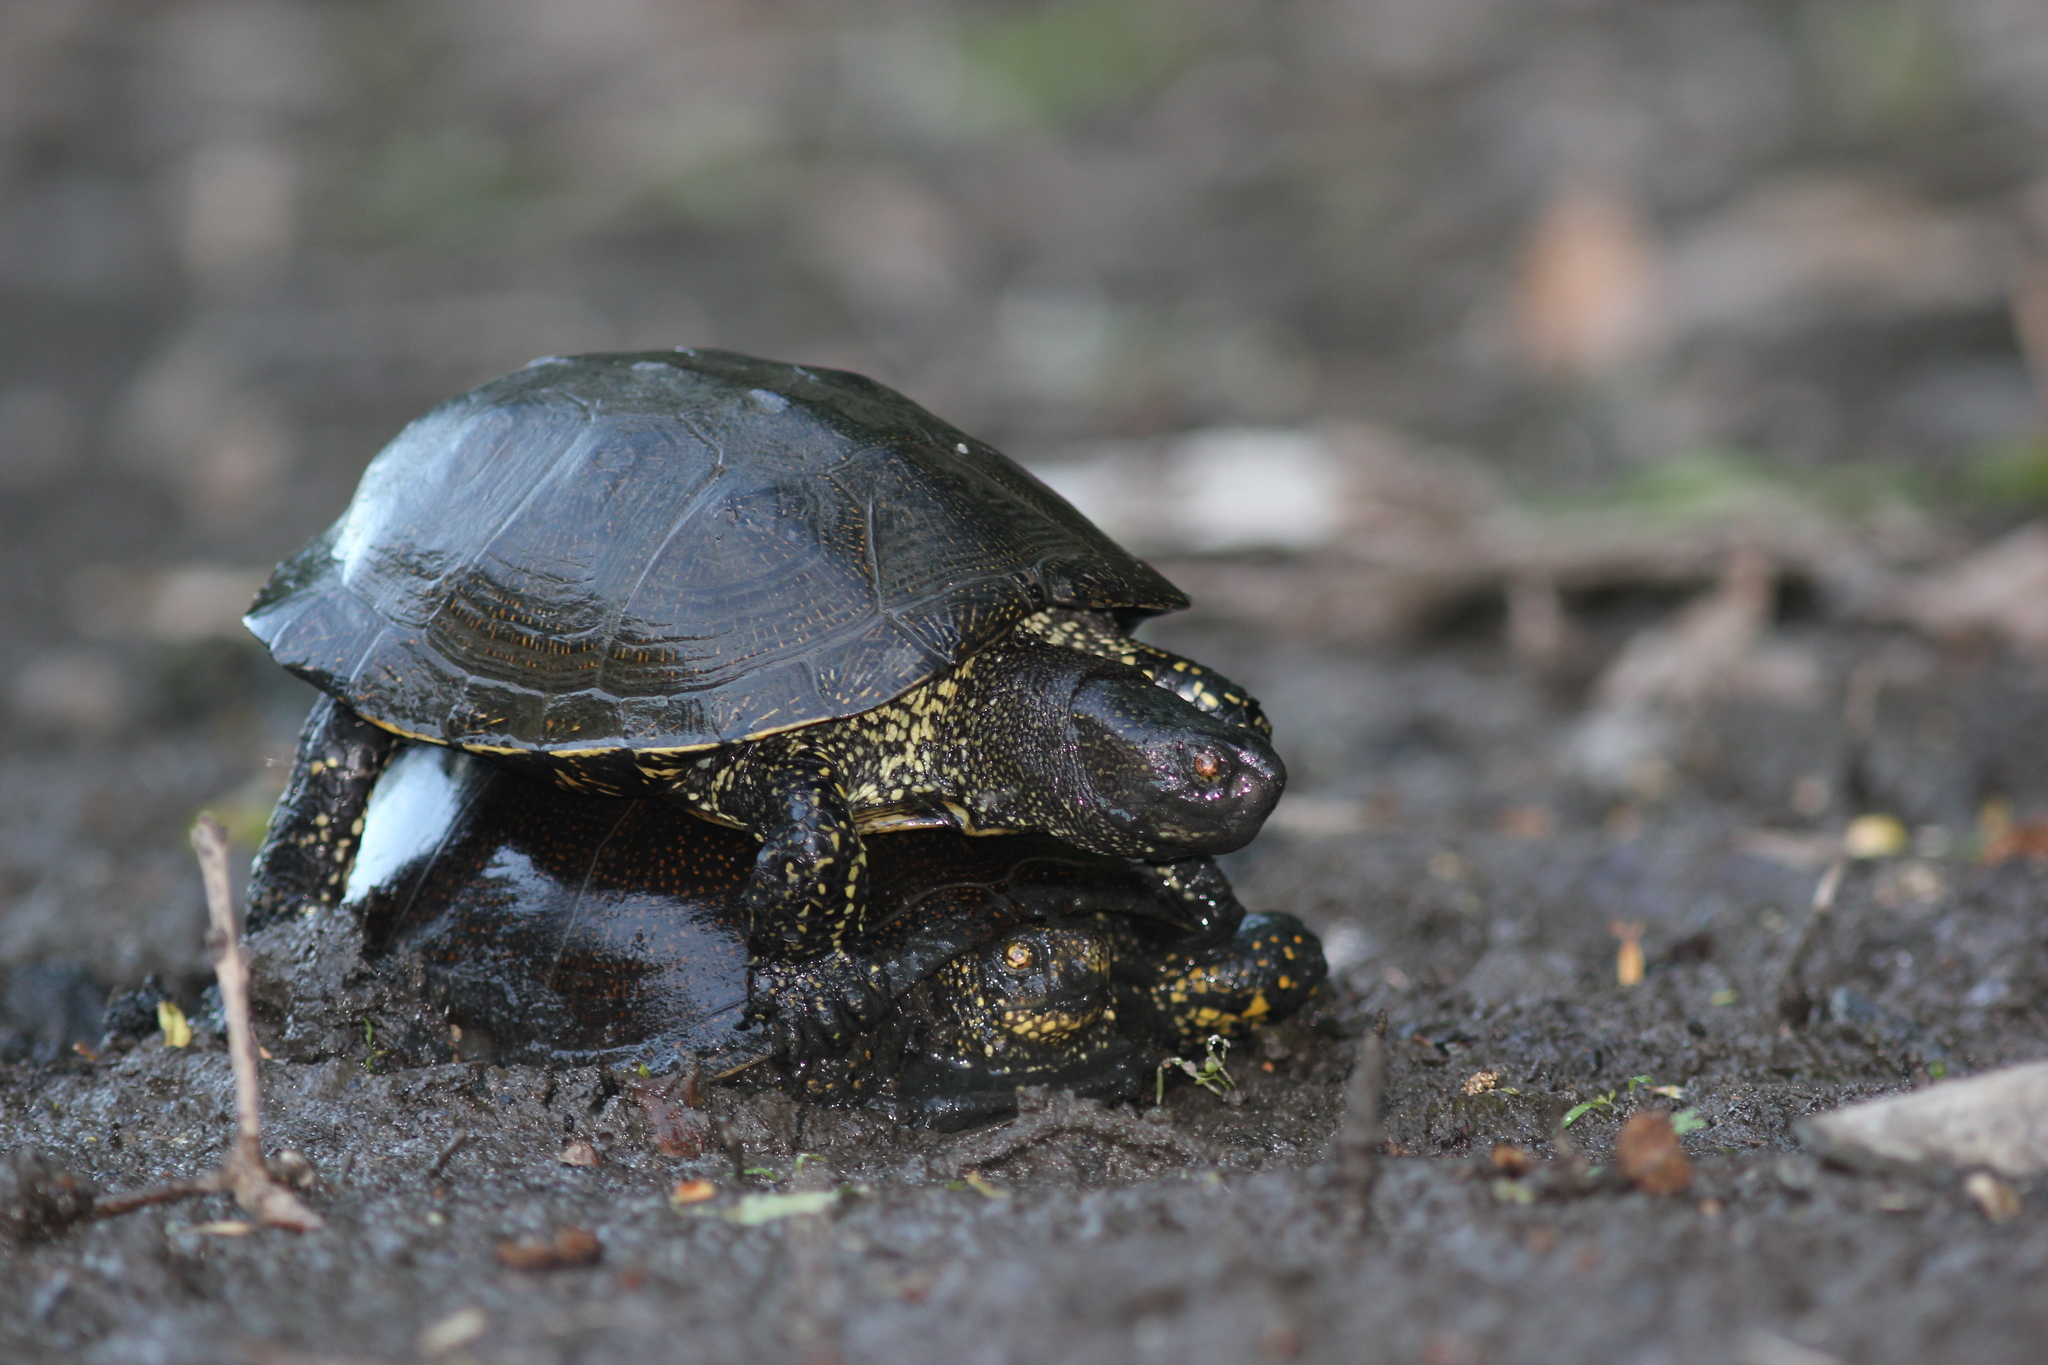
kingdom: Animalia
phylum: Chordata
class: Testudines
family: Emydidae
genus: Emys
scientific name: Emys orbicularis
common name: European pond turtle
